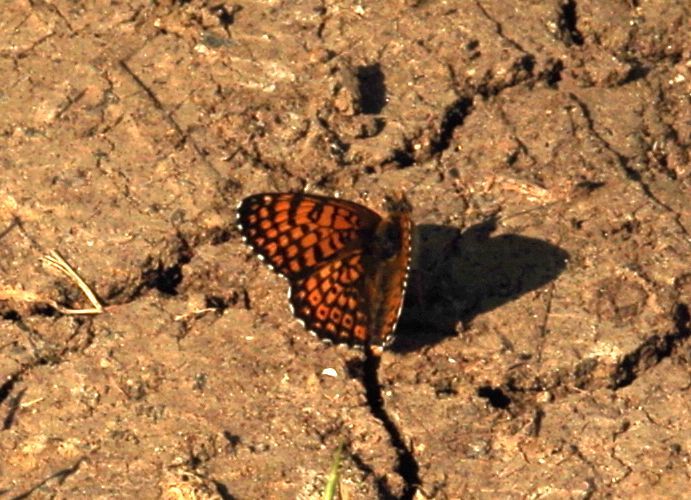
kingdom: Animalia
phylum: Arthropoda
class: Insecta
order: Lepidoptera
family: Nymphalidae
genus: Melitaea
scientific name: Melitaea cinxia
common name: Glanville fritillary
